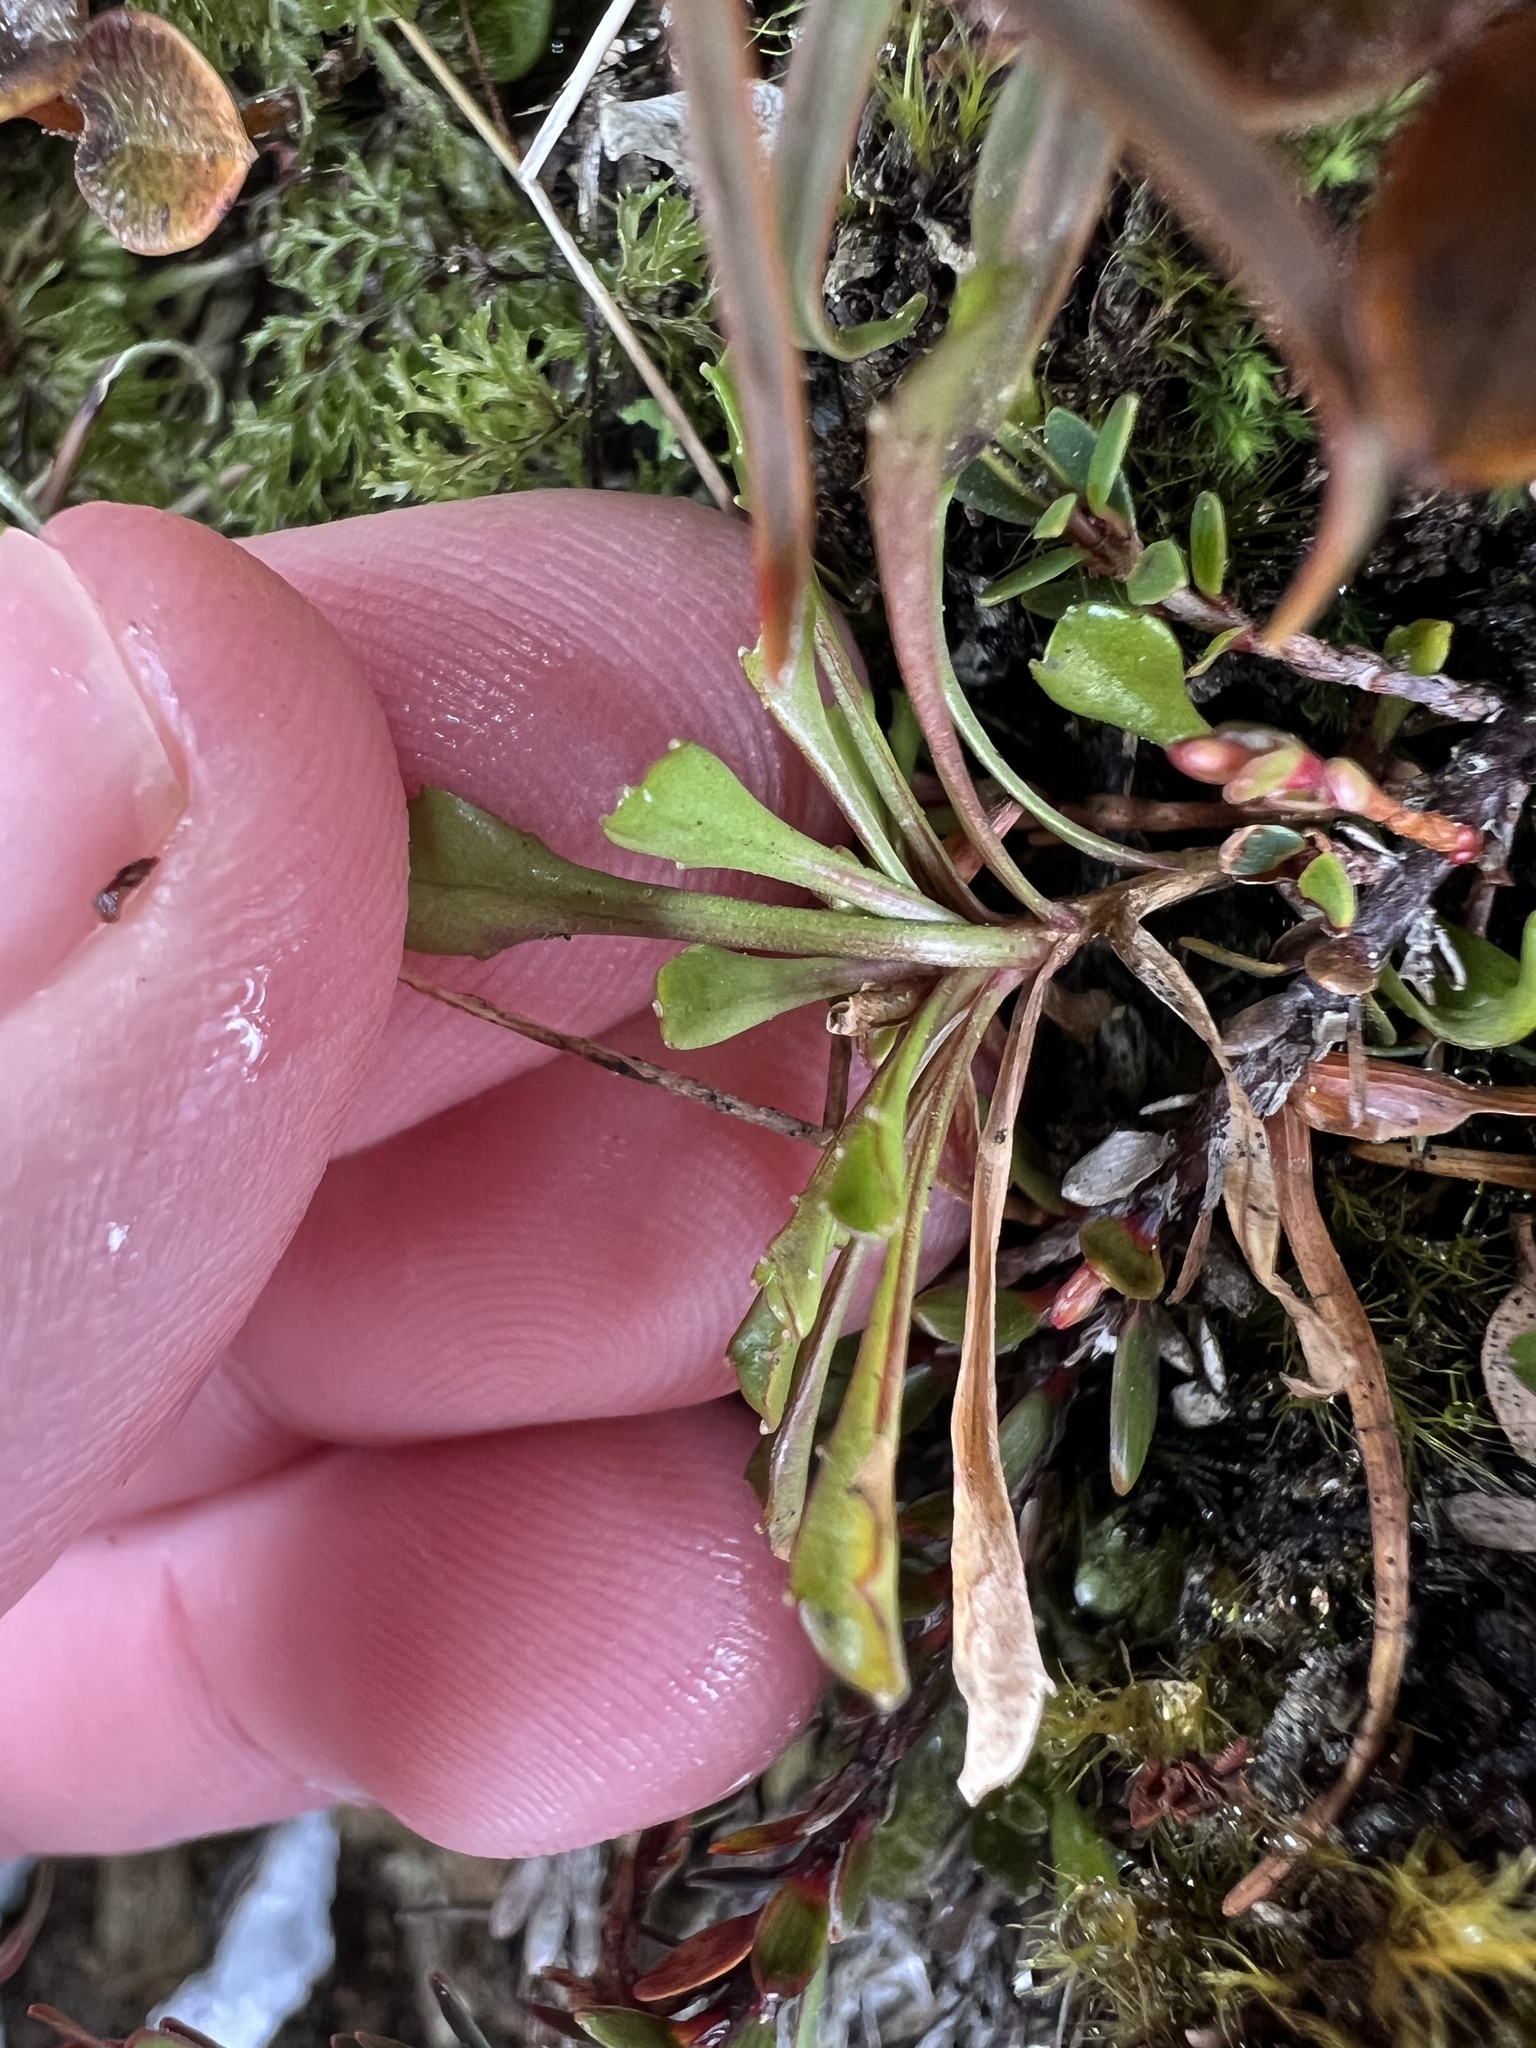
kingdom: Plantae
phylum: Tracheophyta
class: Magnoliopsida
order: Asterales
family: Campanulaceae
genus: Wahlenbergia
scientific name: Wahlenbergia pygmaea
